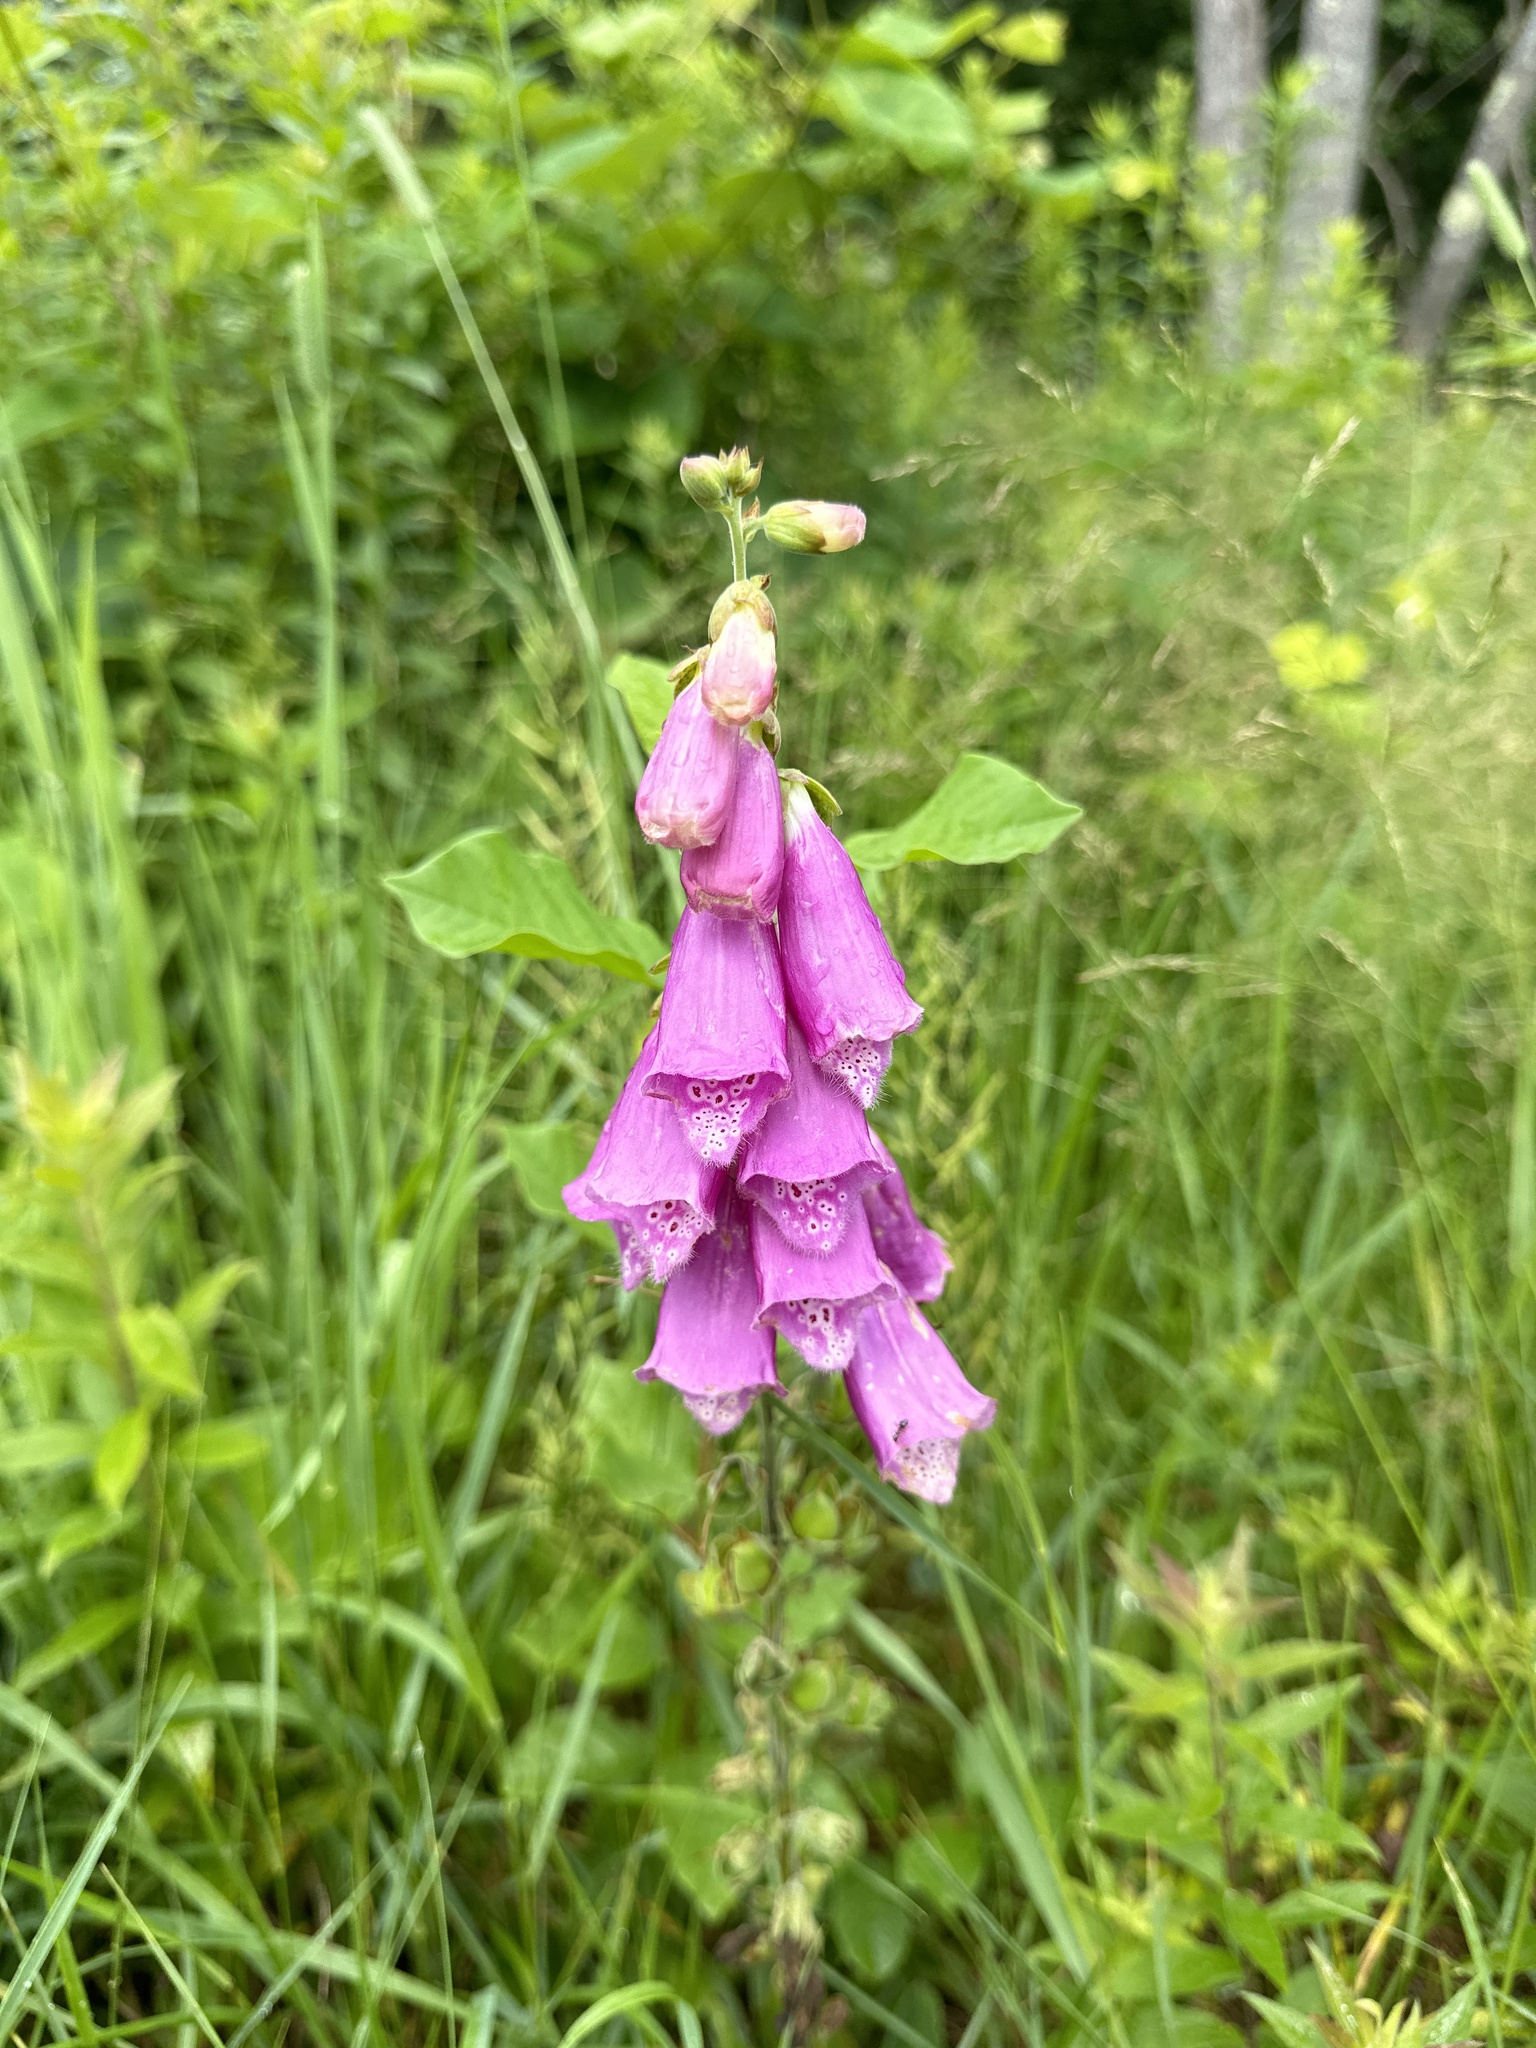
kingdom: Plantae
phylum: Tracheophyta
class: Magnoliopsida
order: Lamiales
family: Plantaginaceae
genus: Digitalis
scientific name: Digitalis purpurea
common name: Foxglove
